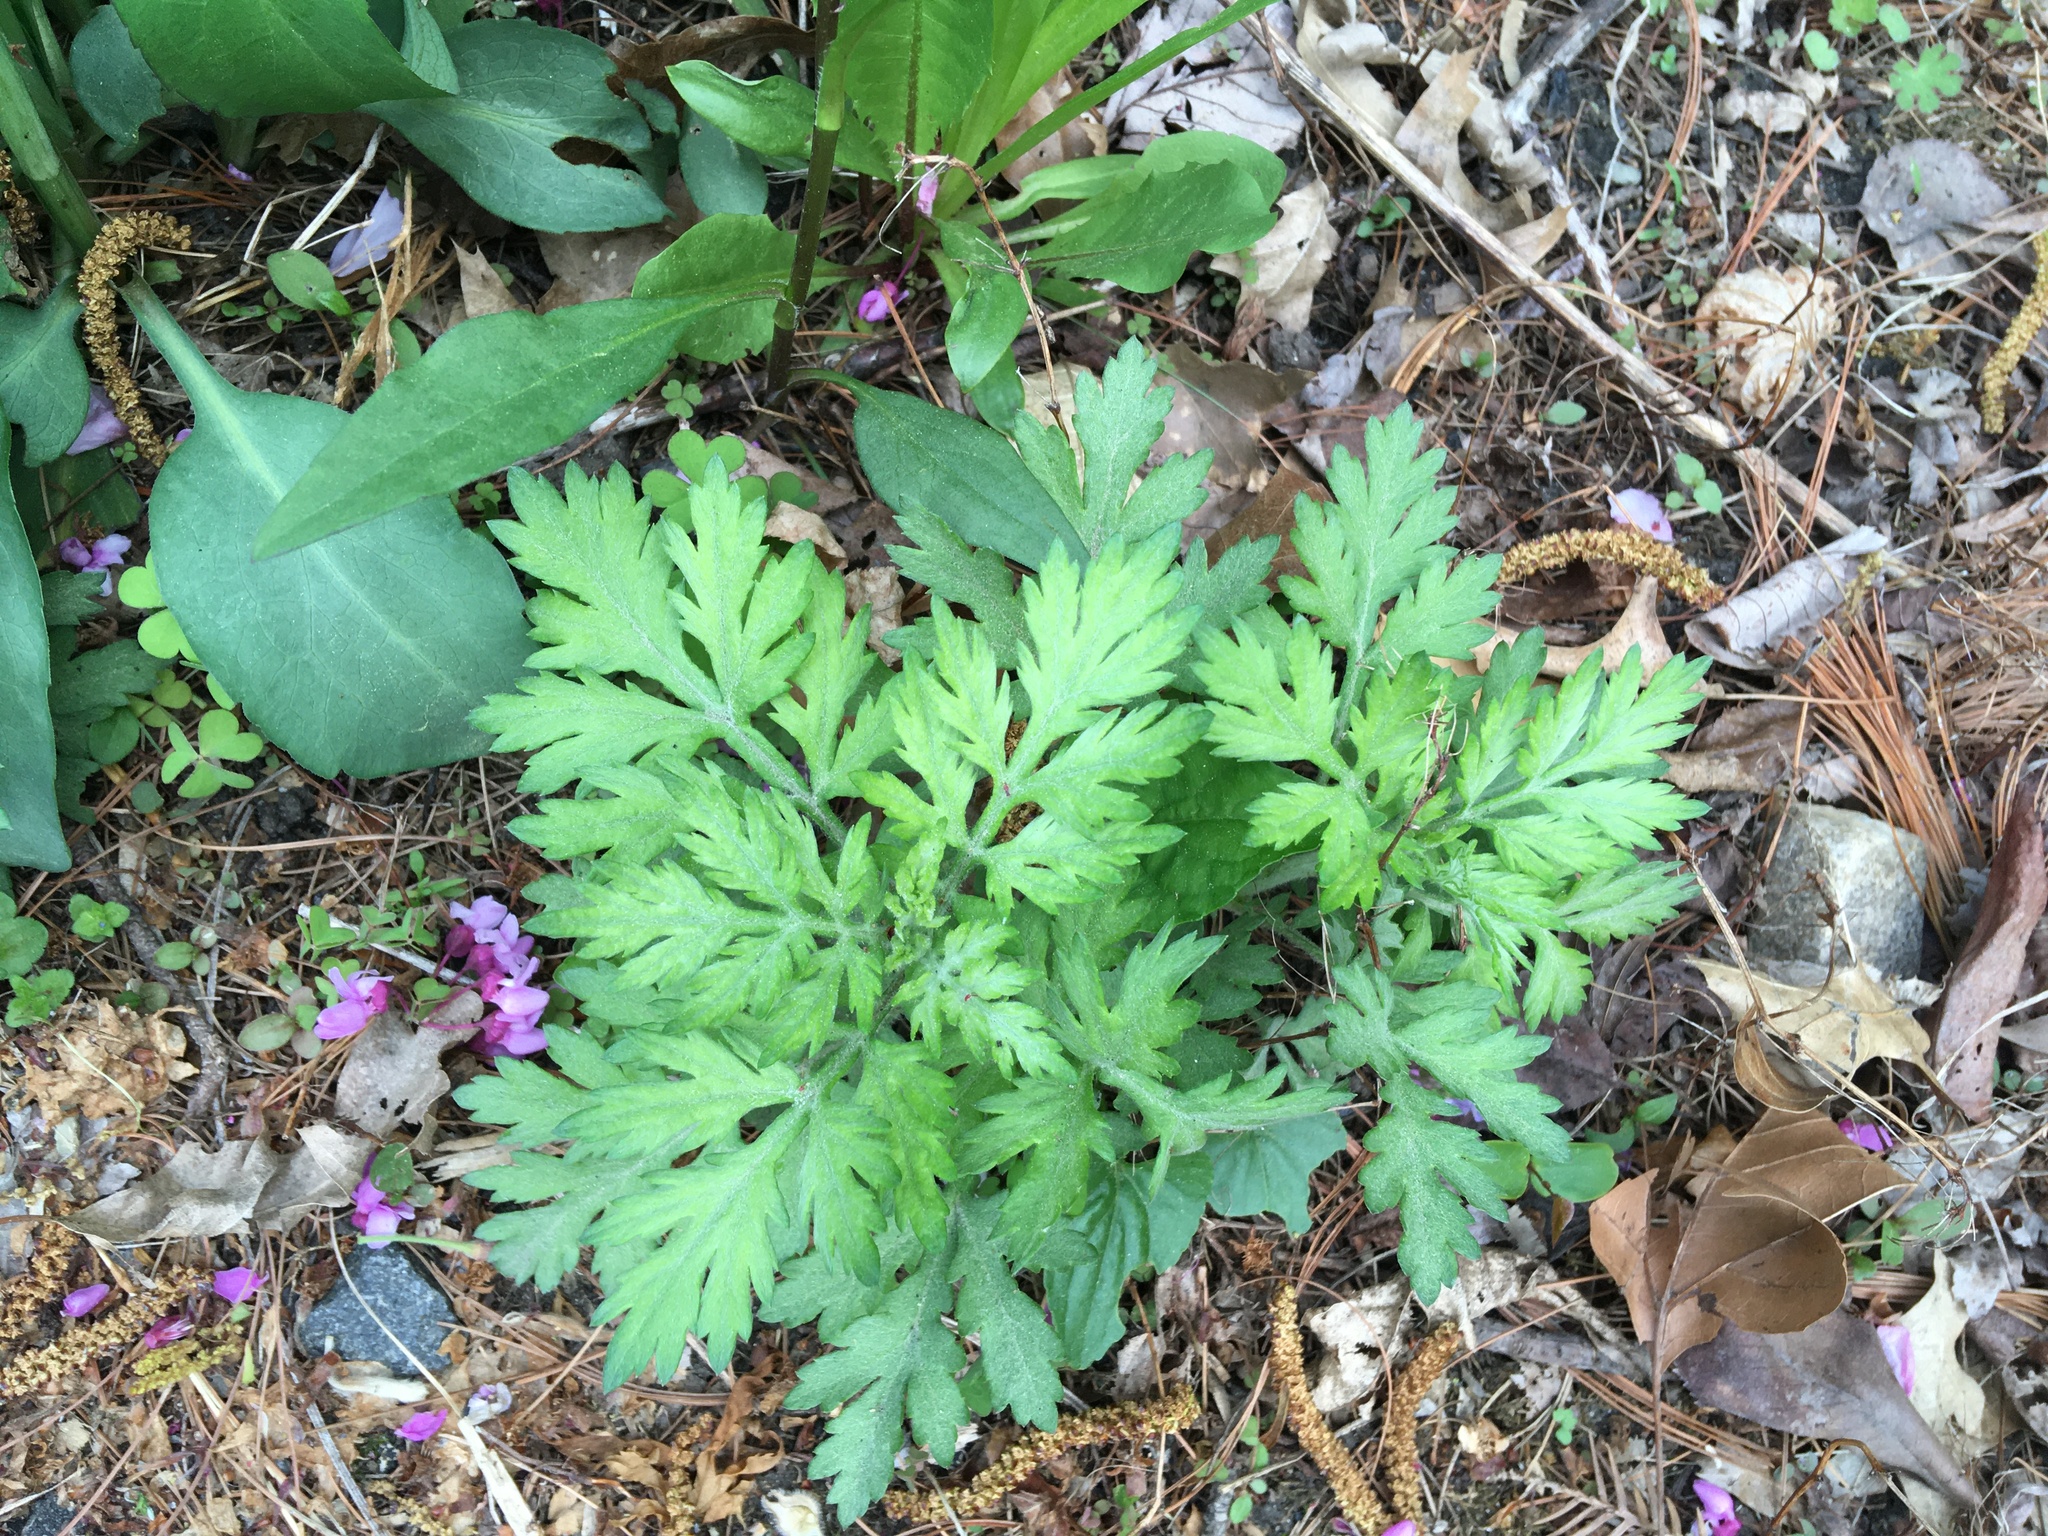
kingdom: Plantae
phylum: Tracheophyta
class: Magnoliopsida
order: Asterales
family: Asteraceae
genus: Artemisia
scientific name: Artemisia vulgaris
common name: Mugwort
